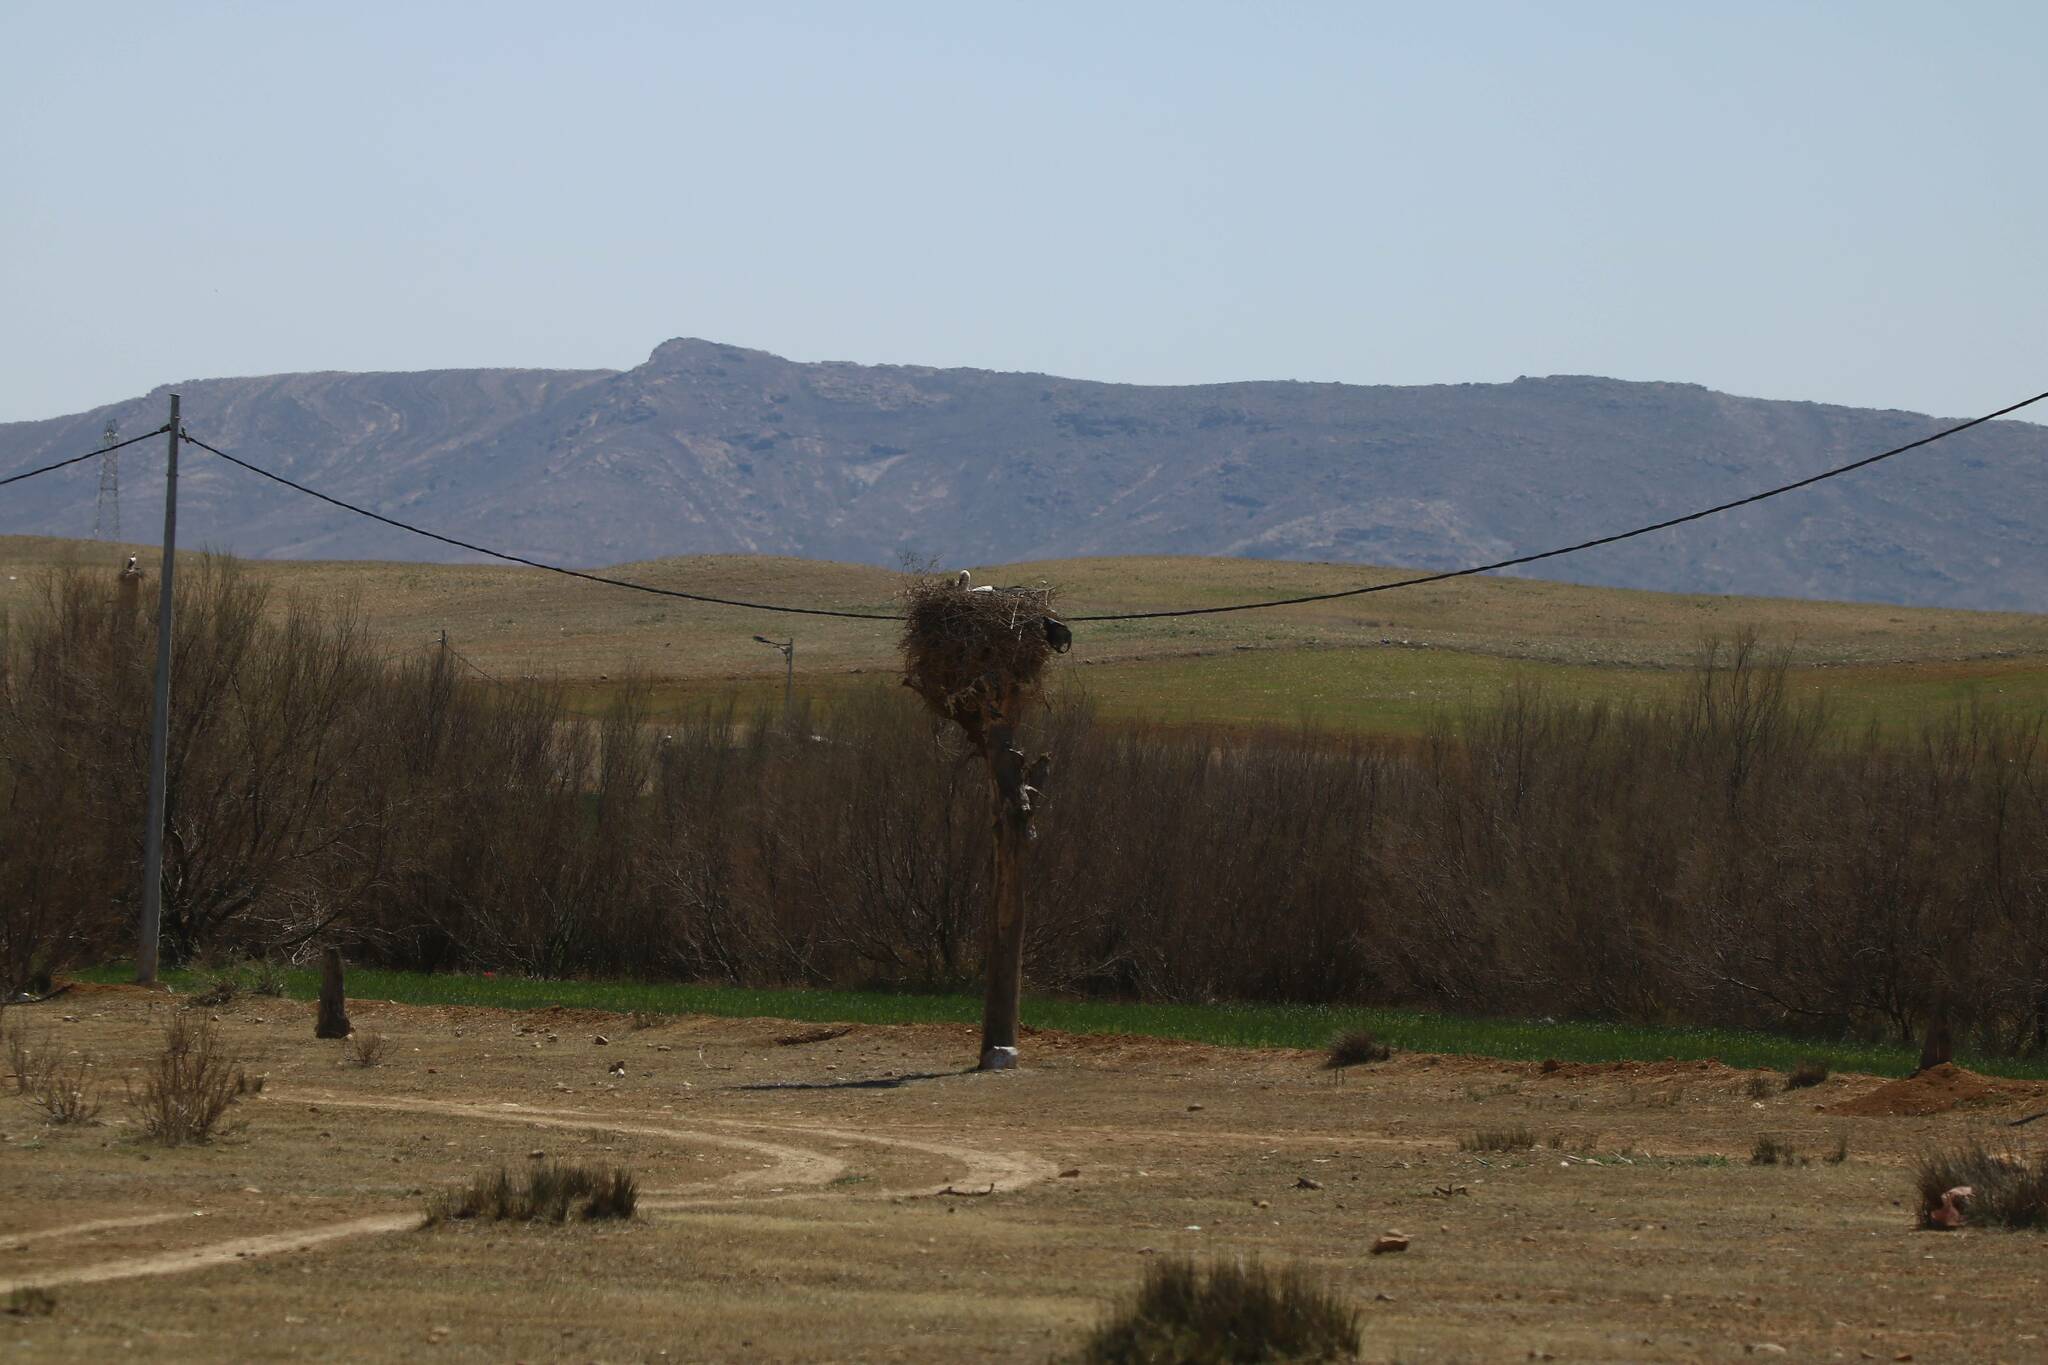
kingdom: Animalia
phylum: Chordata
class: Aves
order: Ciconiiformes
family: Ciconiidae
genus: Ciconia
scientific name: Ciconia ciconia
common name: White stork
